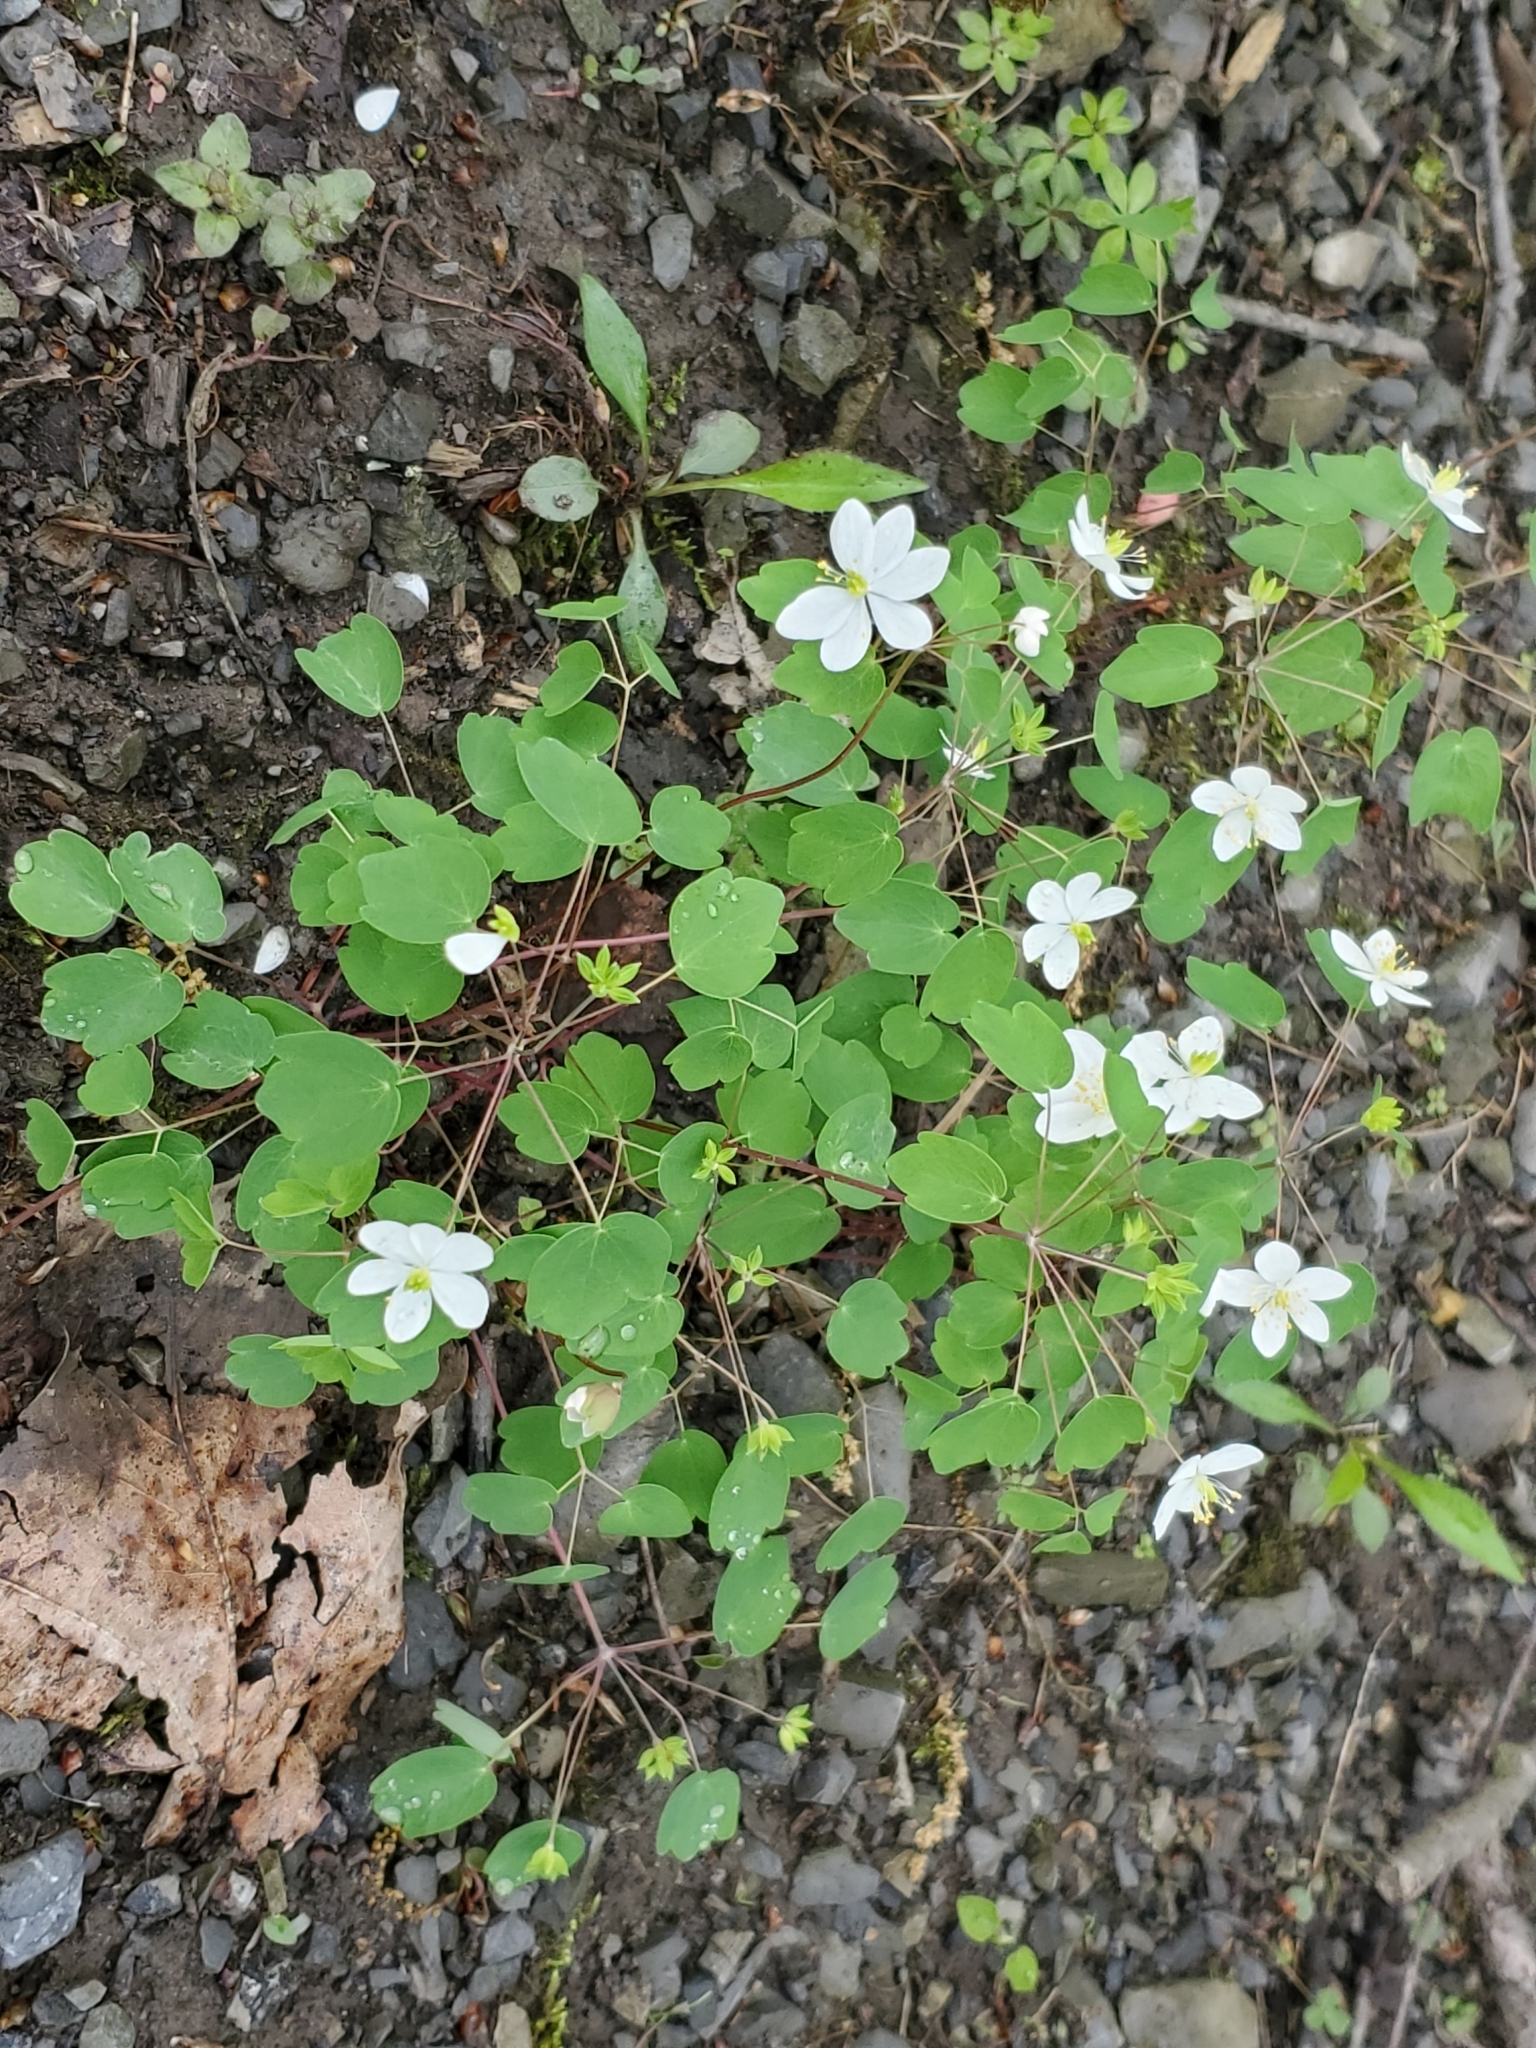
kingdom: Plantae
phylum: Tracheophyta
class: Magnoliopsida
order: Ranunculales
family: Ranunculaceae
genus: Thalictrum
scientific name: Thalictrum thalictroides
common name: Rue-anemone
